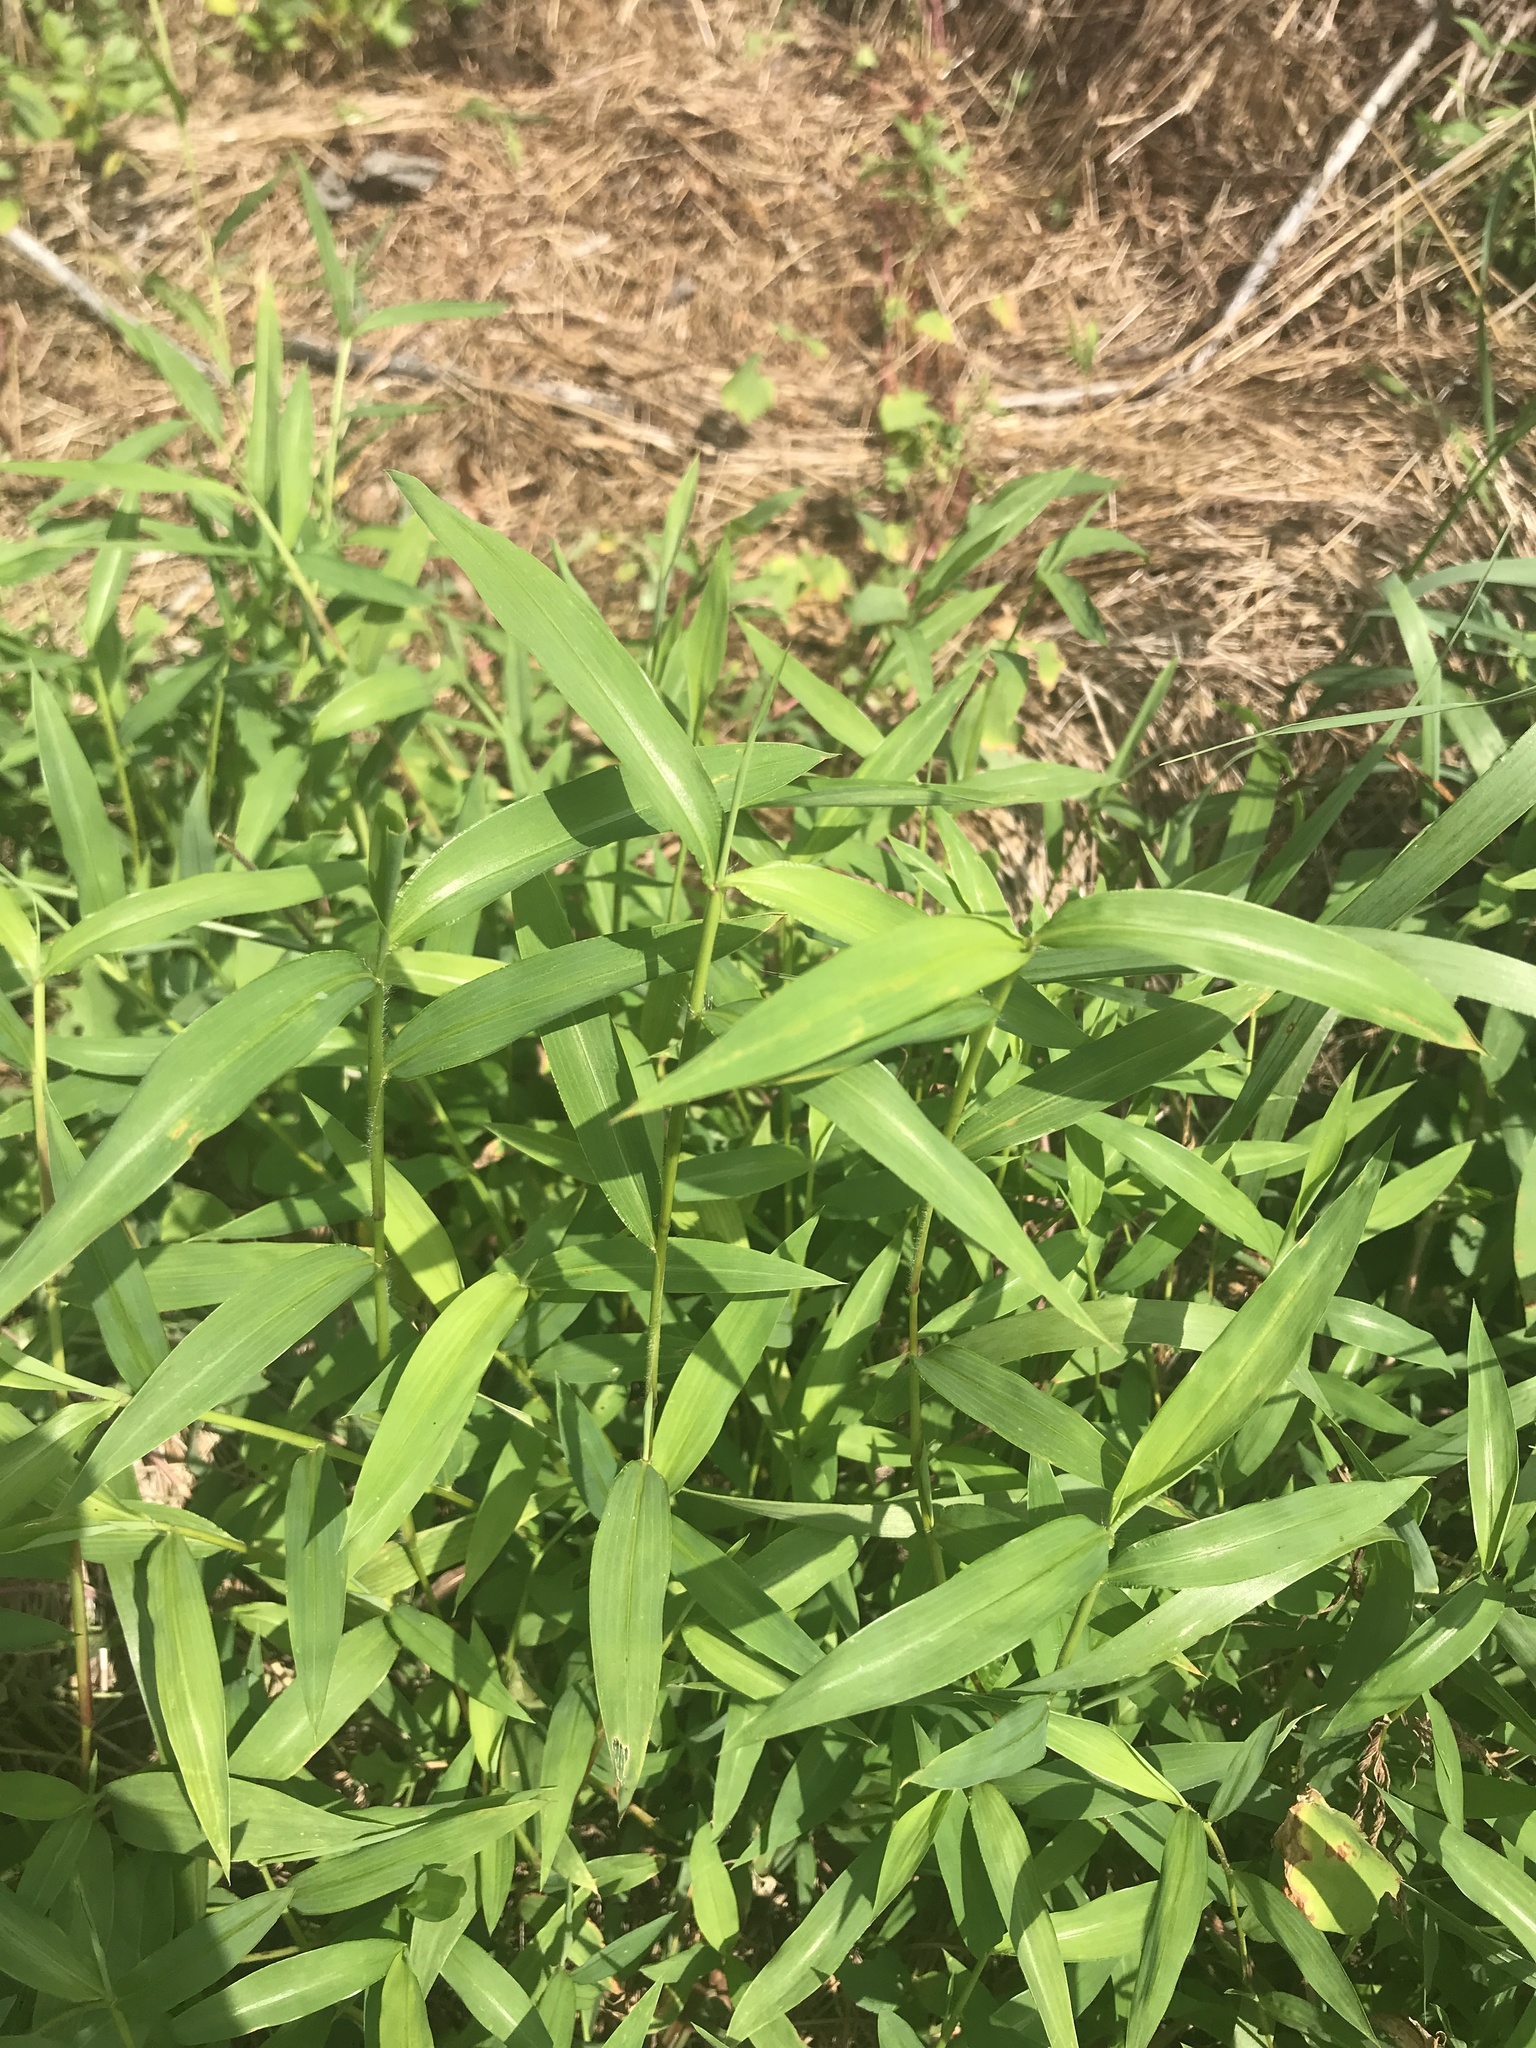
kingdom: Plantae
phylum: Tracheophyta
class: Liliopsida
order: Poales
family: Poaceae
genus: Microstegium
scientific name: Microstegium vimineum
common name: Japanese stiltgrass
